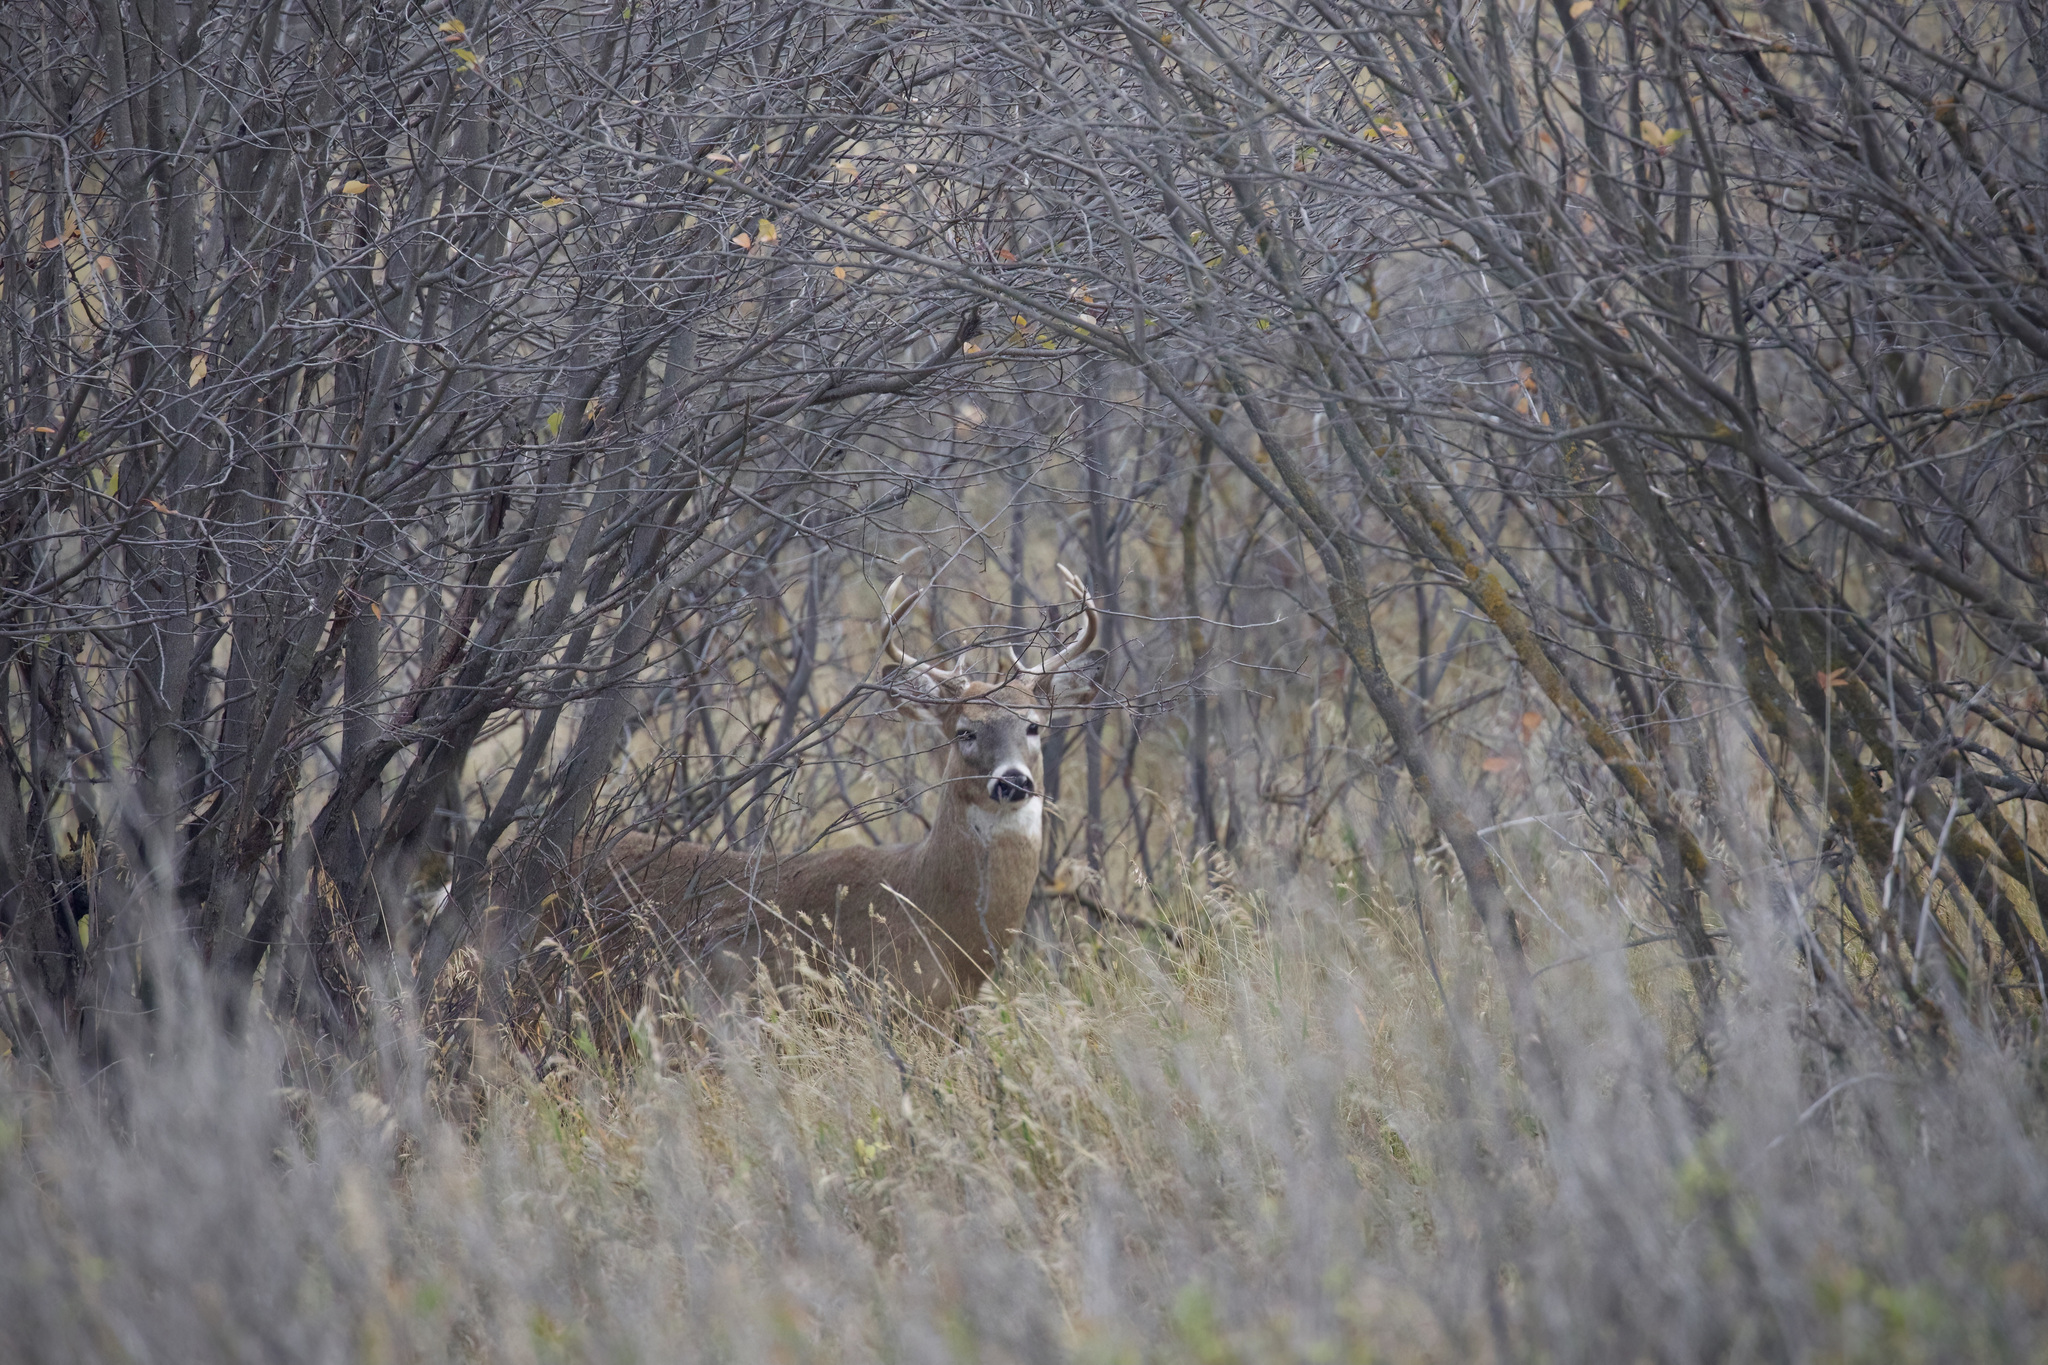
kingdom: Animalia
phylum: Chordata
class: Mammalia
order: Artiodactyla
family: Cervidae
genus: Odocoileus
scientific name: Odocoileus virginianus
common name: White-tailed deer
